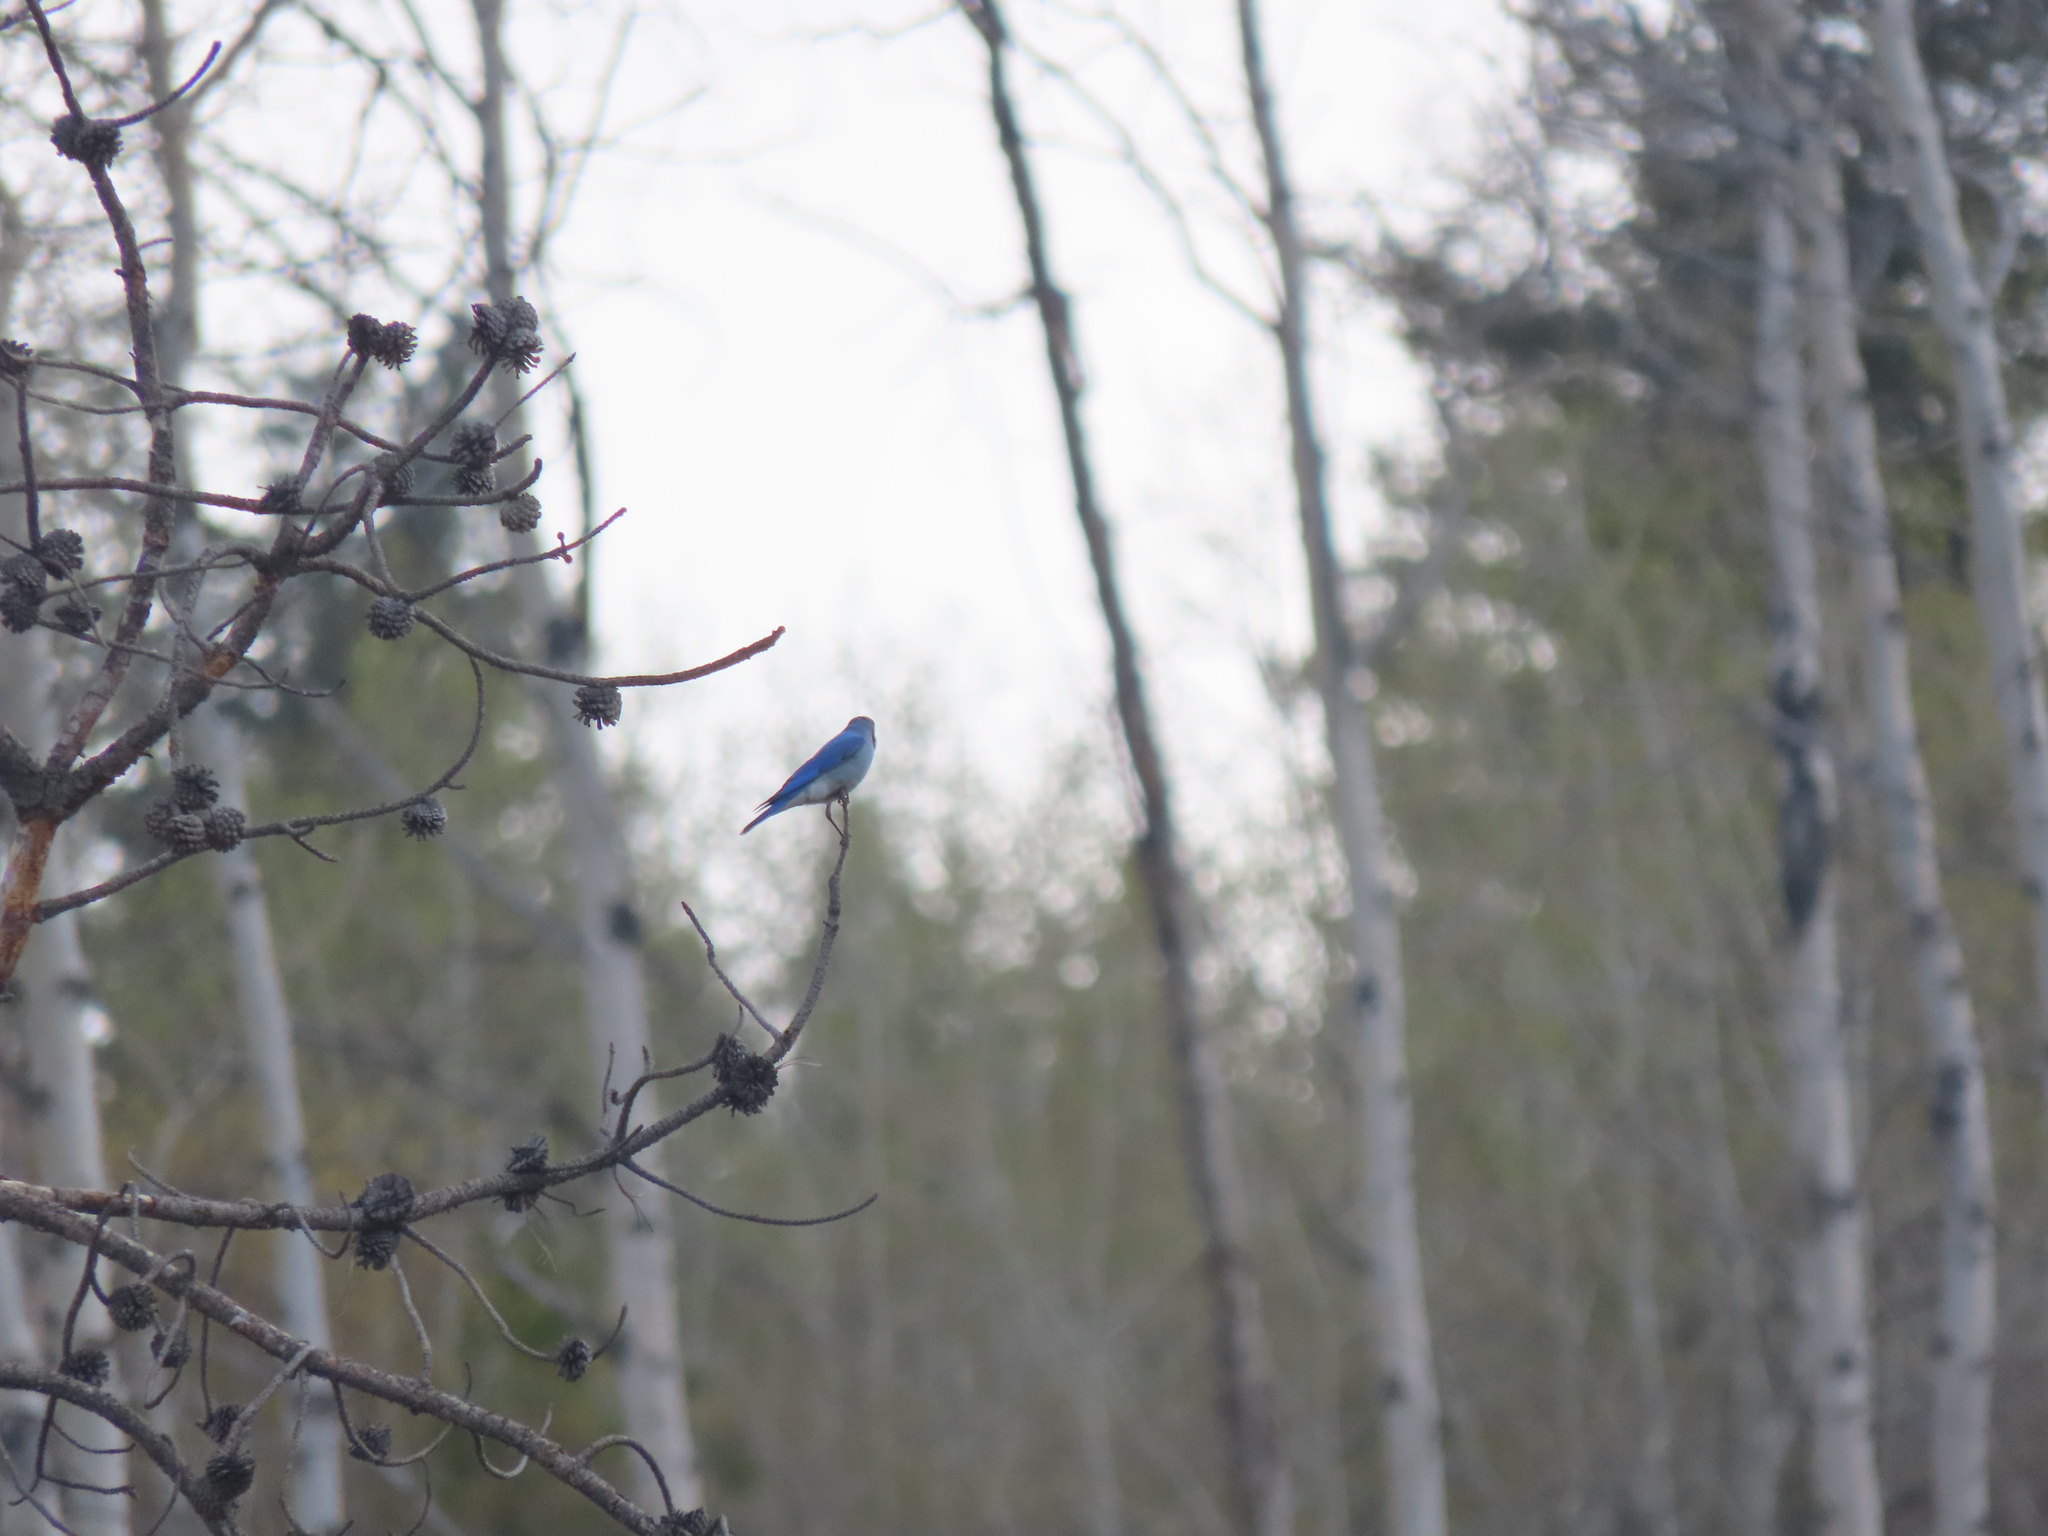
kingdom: Animalia
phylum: Chordata
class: Aves
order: Passeriformes
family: Turdidae
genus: Sialia
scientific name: Sialia currucoides
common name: Mountain bluebird
